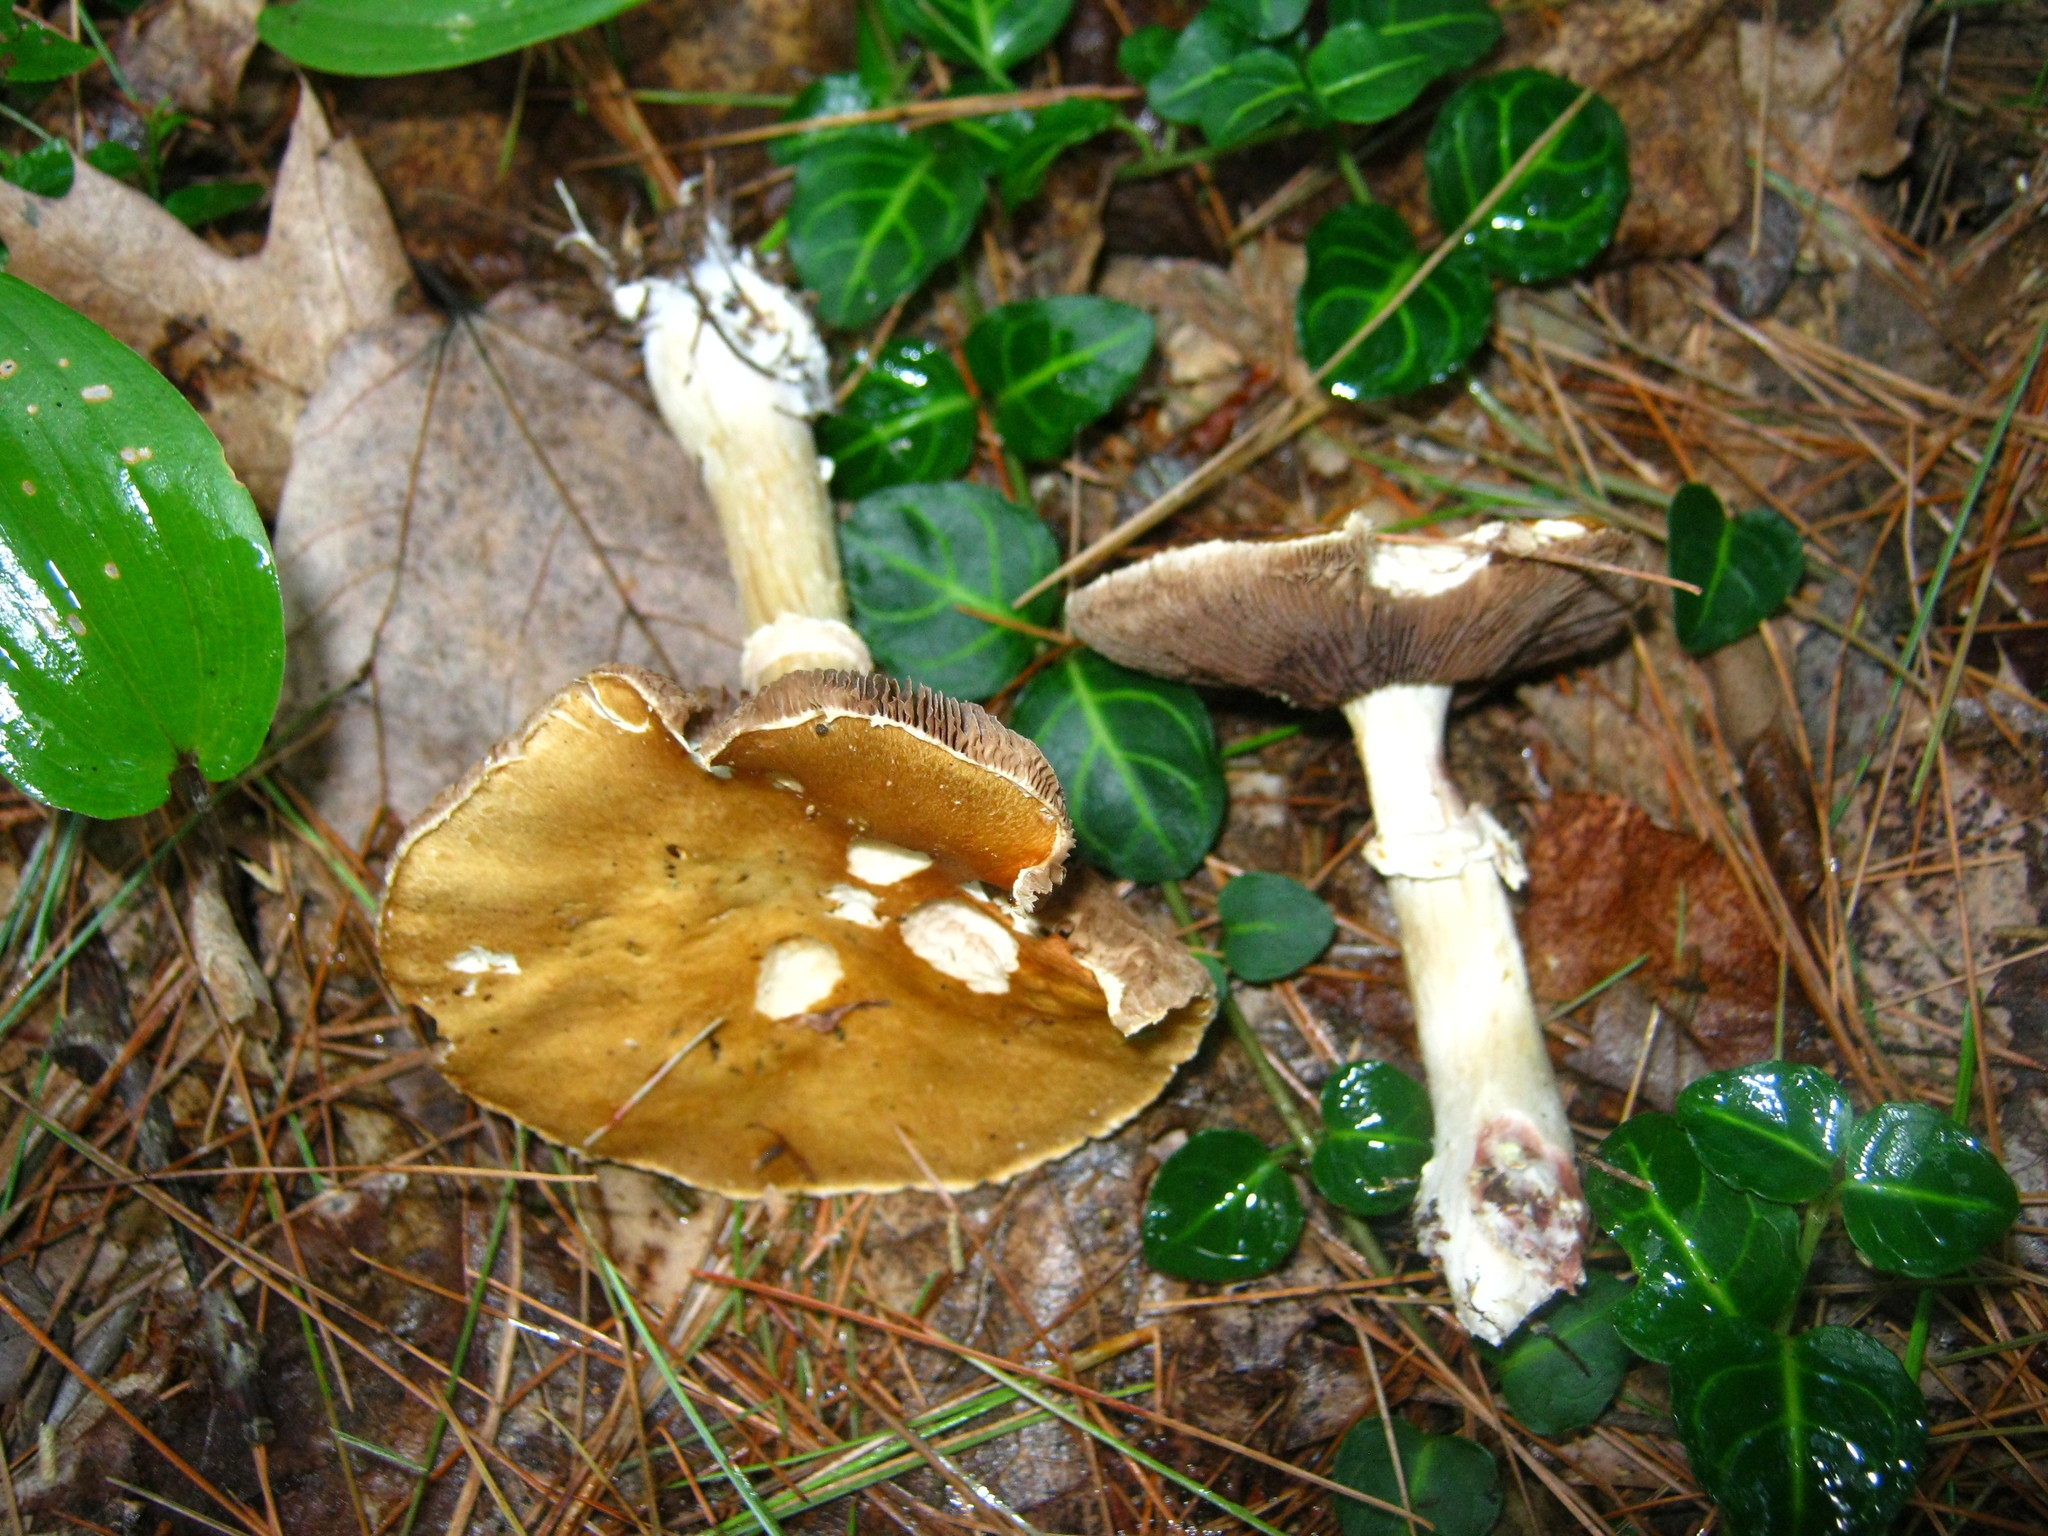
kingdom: Fungi
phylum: Basidiomycota
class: Agaricomycetes
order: Agaricales
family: Strophariaceae
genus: Stropharia
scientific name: Stropharia hardii
